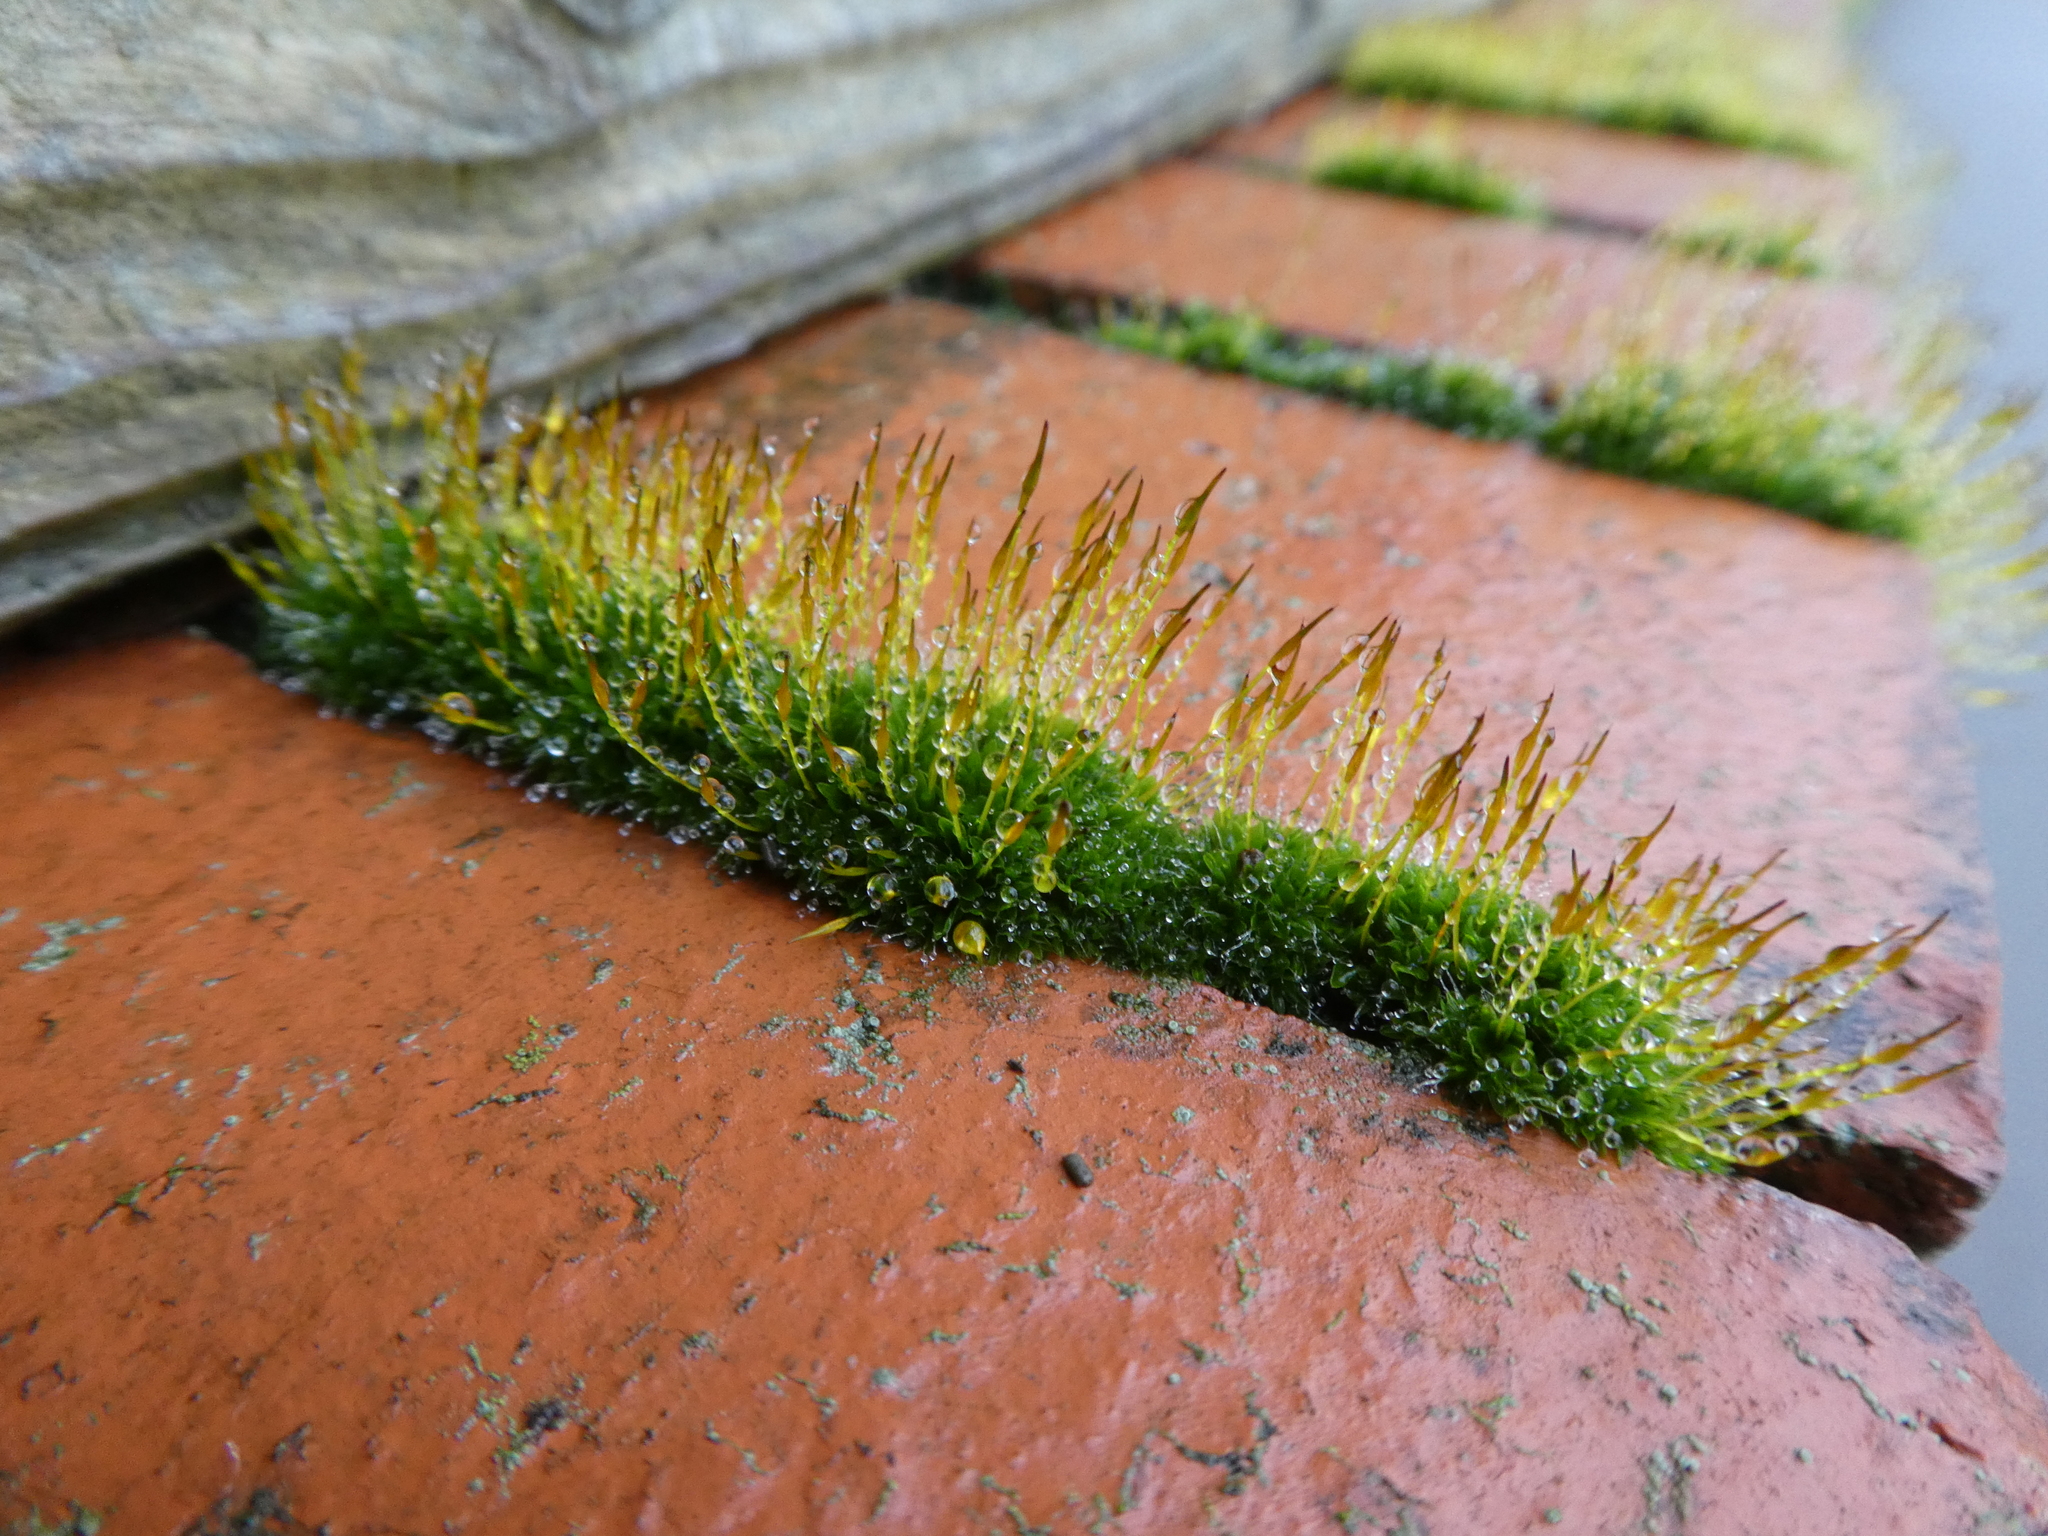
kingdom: Plantae
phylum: Bryophyta
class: Bryopsida
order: Pottiales
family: Pottiaceae
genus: Tortula
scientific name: Tortula muralis
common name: Wall screw-moss
